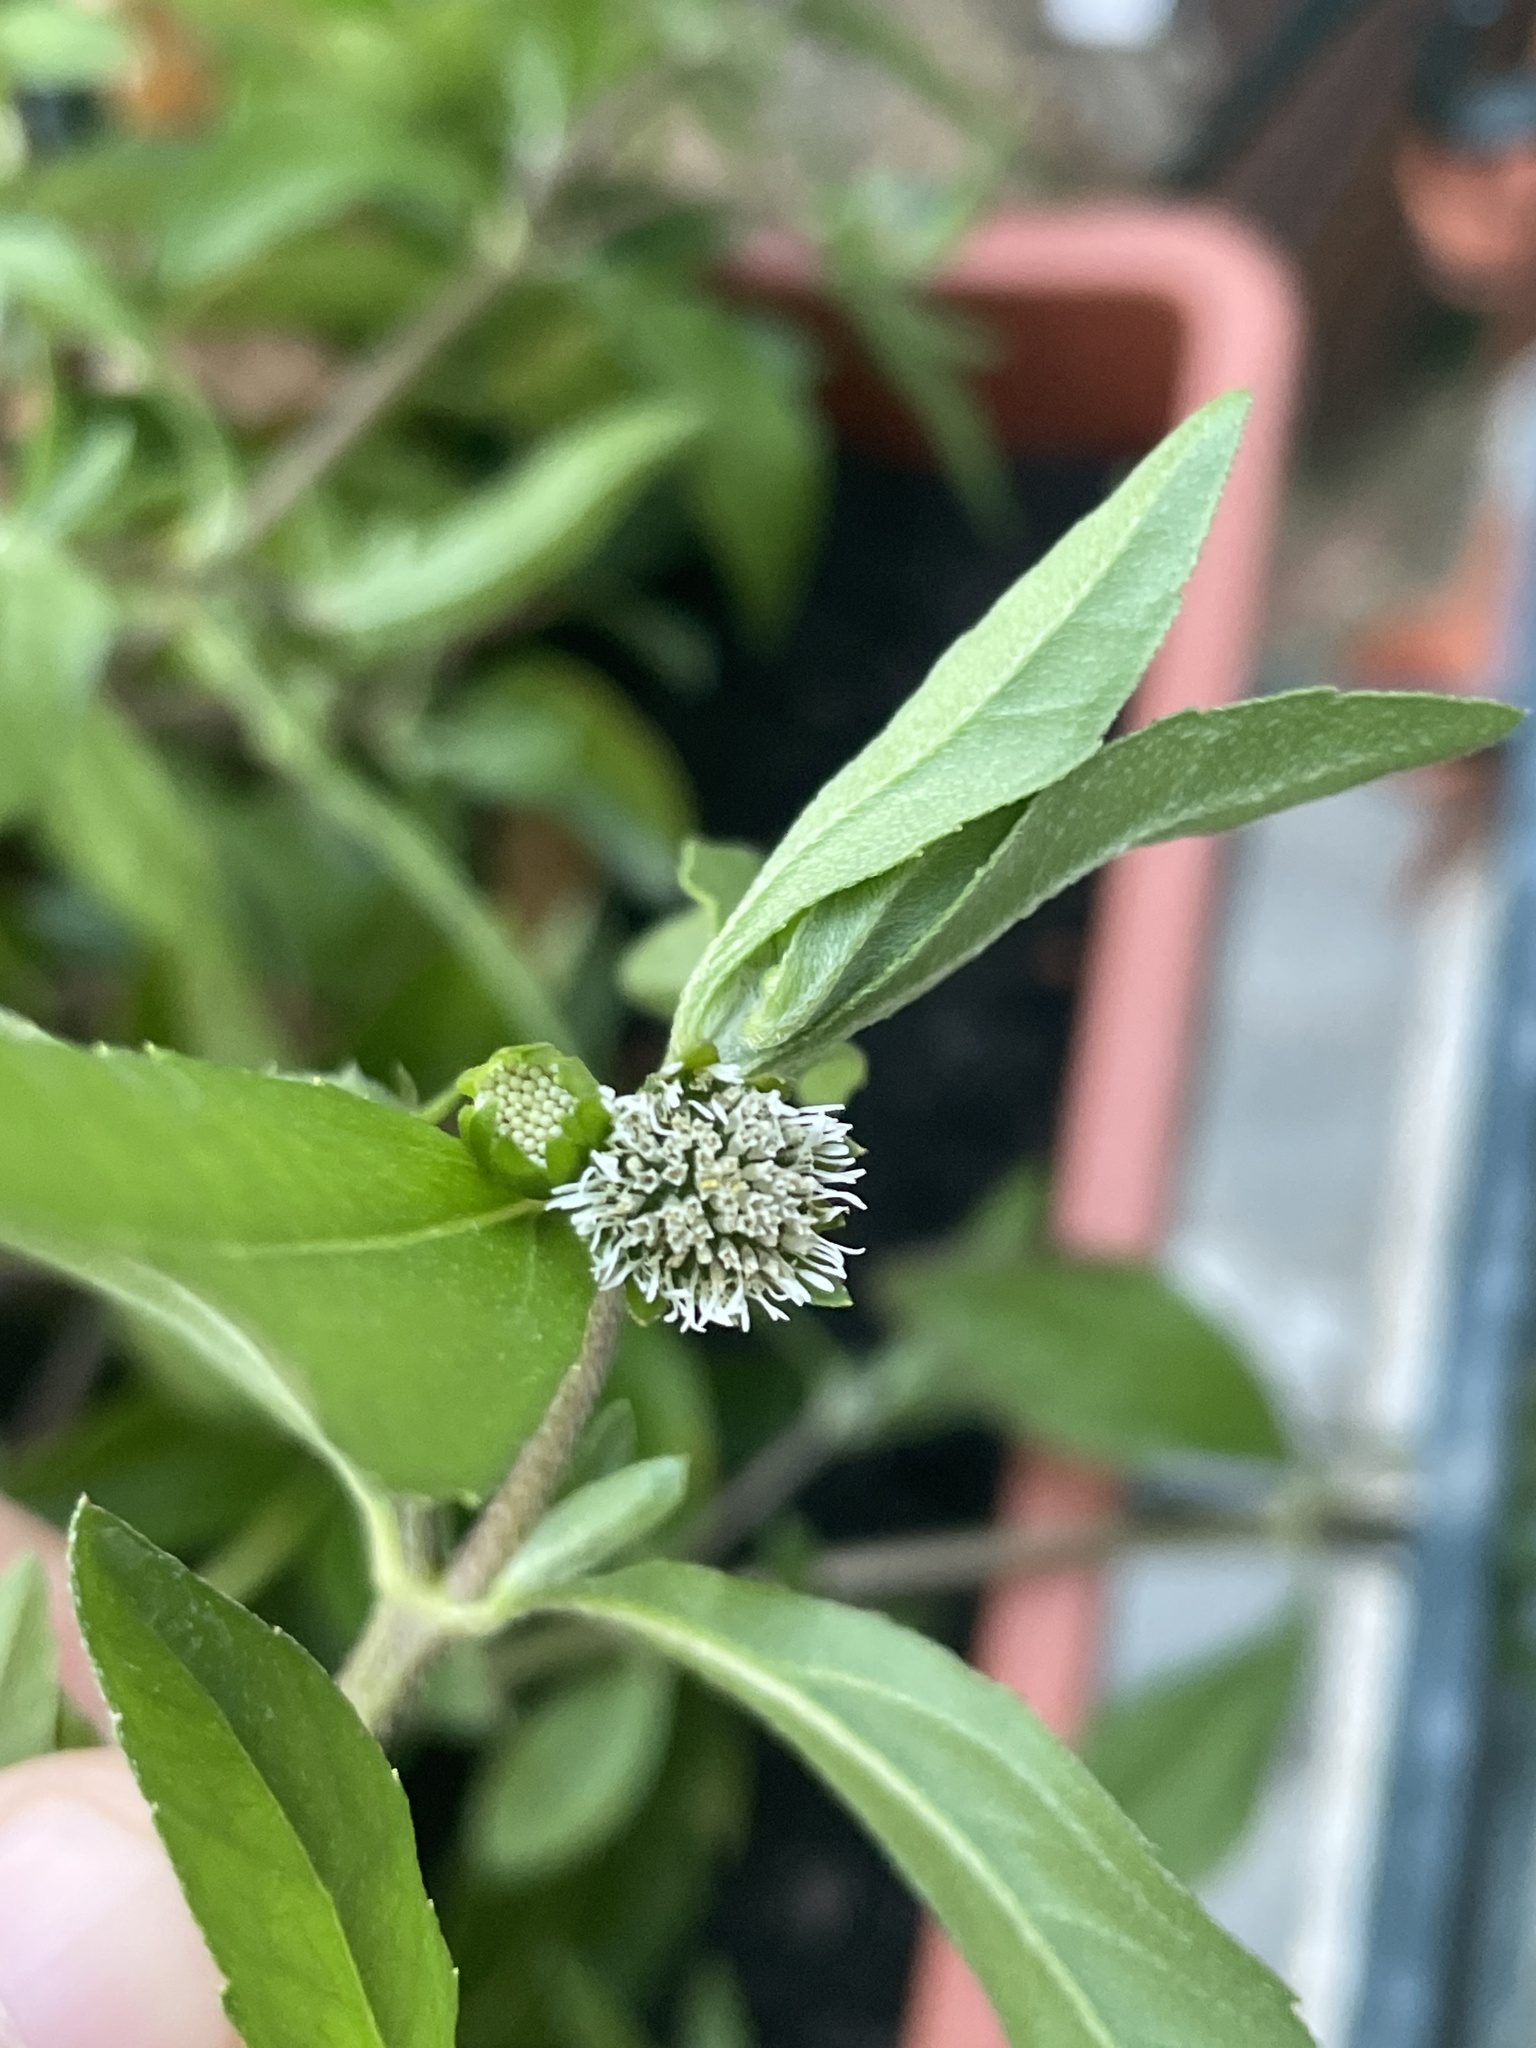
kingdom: Plantae
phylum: Tracheophyta
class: Magnoliopsida
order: Asterales
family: Asteraceae
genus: Eclipta
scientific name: Eclipta prostrata
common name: False daisy
